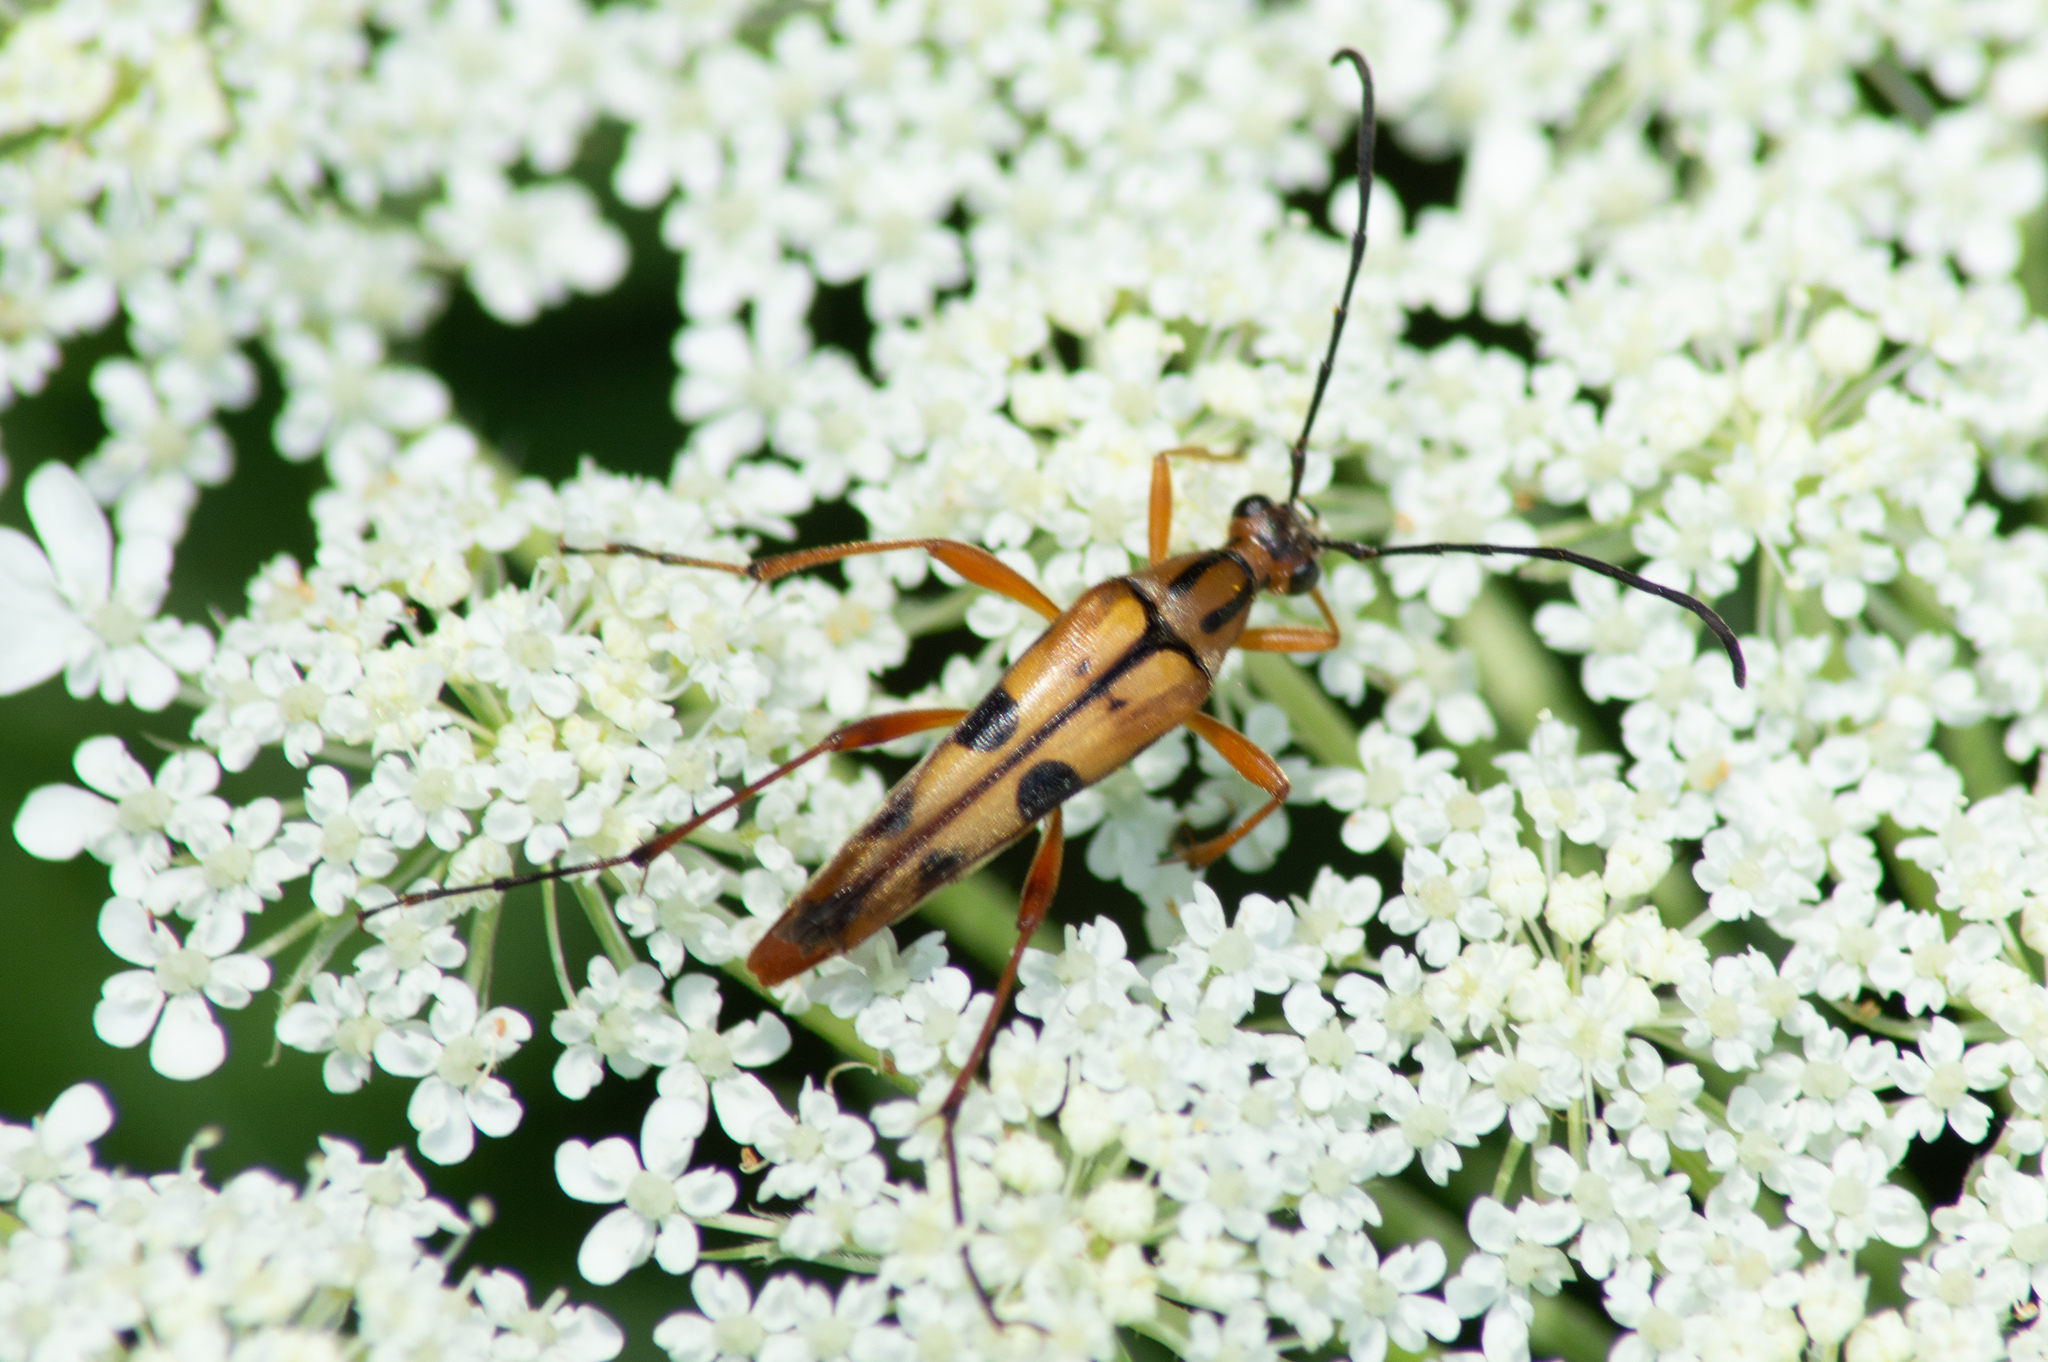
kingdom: Animalia
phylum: Arthropoda
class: Insecta
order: Coleoptera
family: Cerambycidae
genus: Strangalia
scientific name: Strangalia famelica
